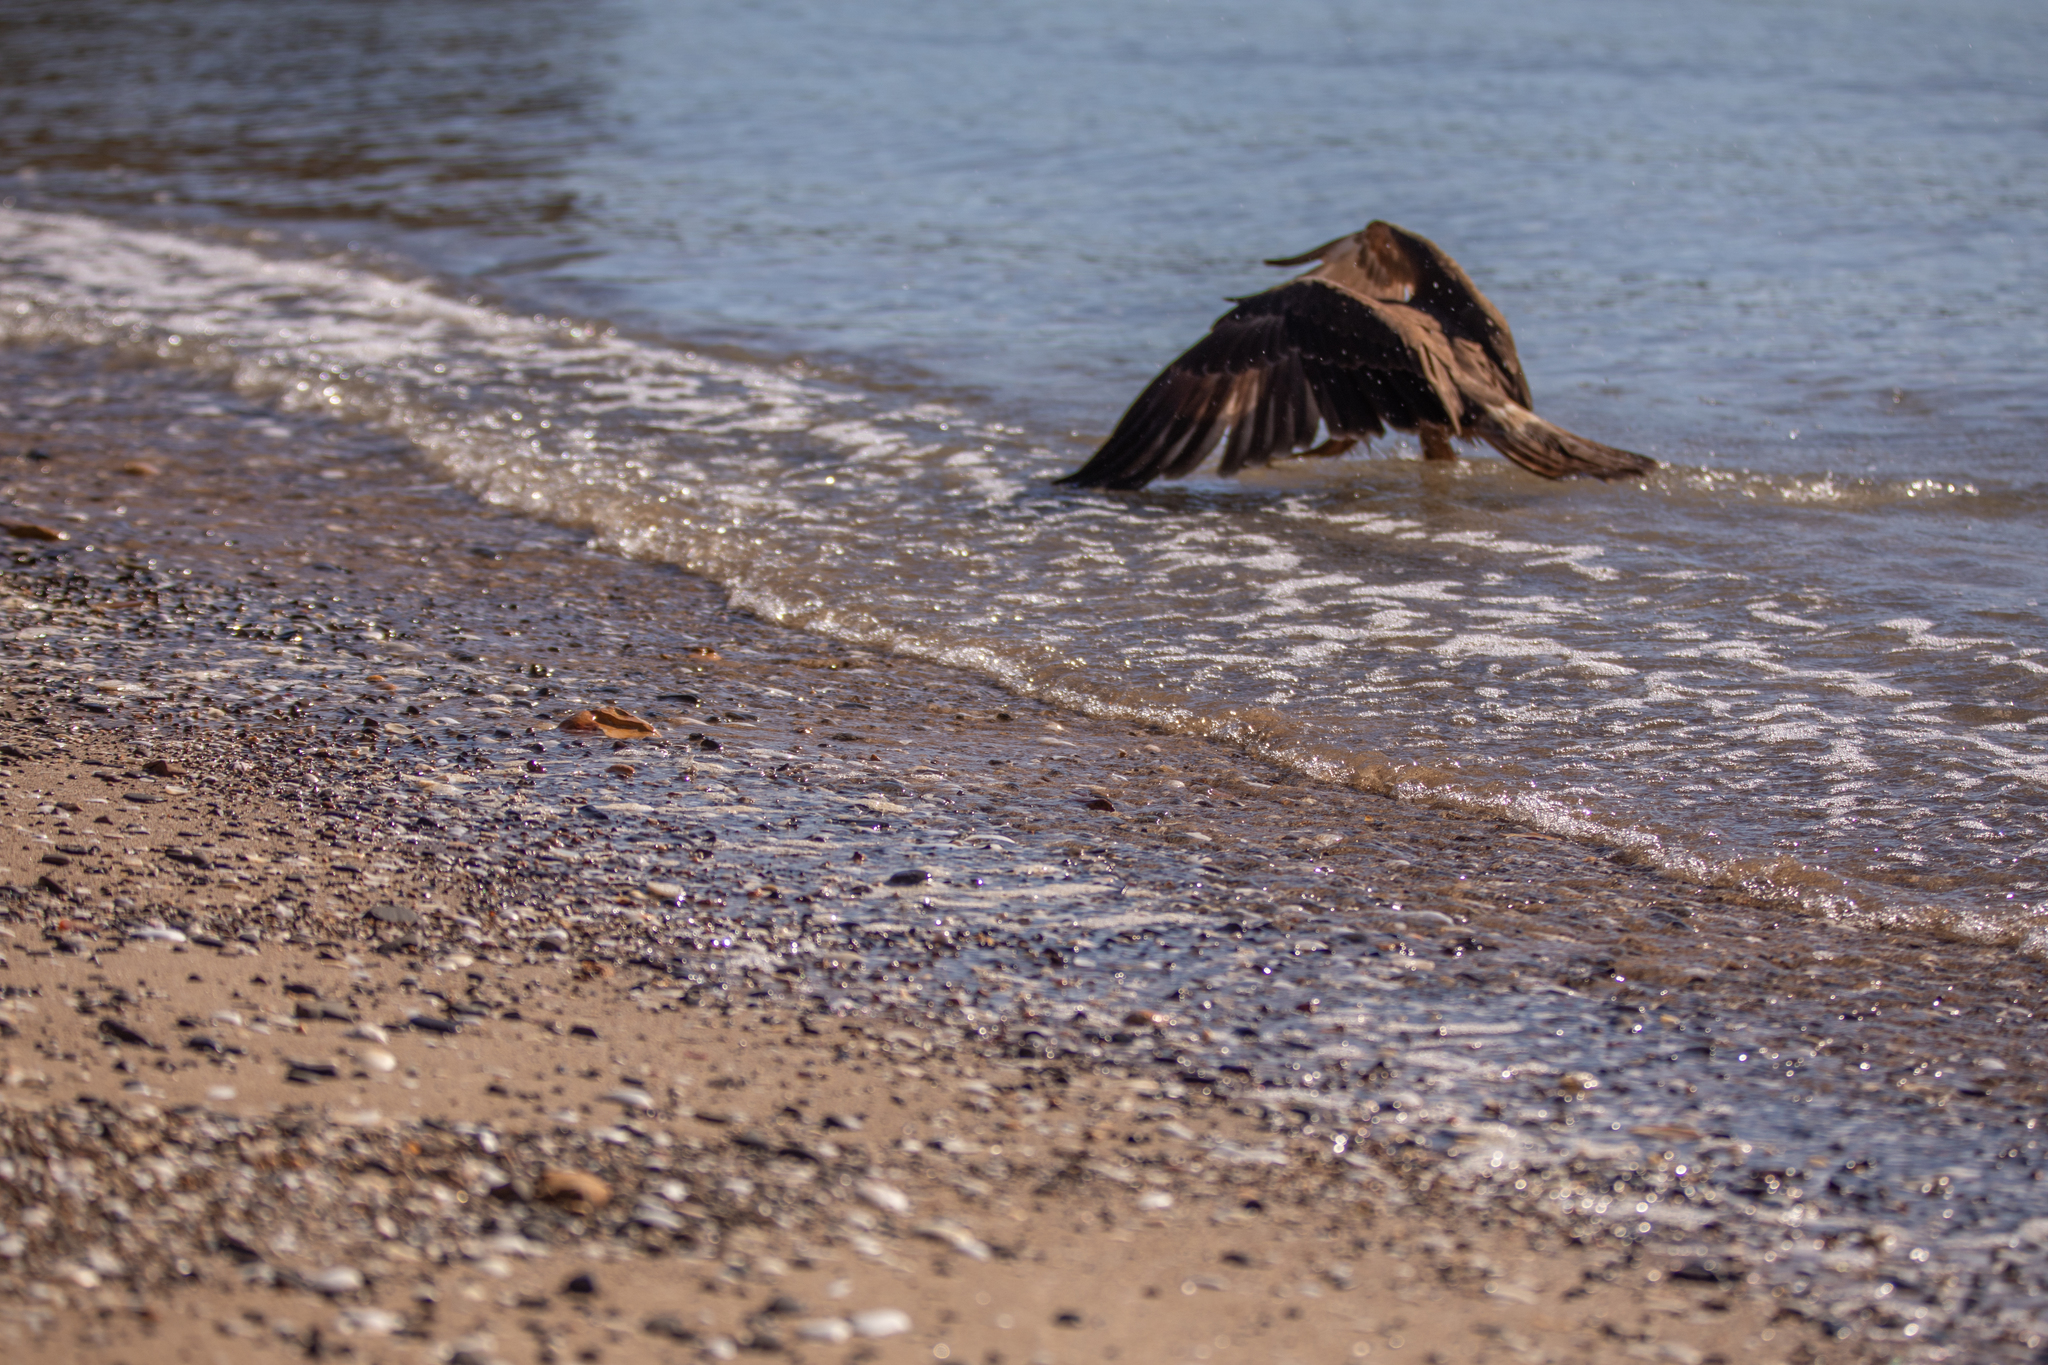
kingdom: Animalia
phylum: Chordata
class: Aves
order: Accipitriformes
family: Accipitridae
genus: Circus
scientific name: Circus approximans
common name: Swamp harrier
